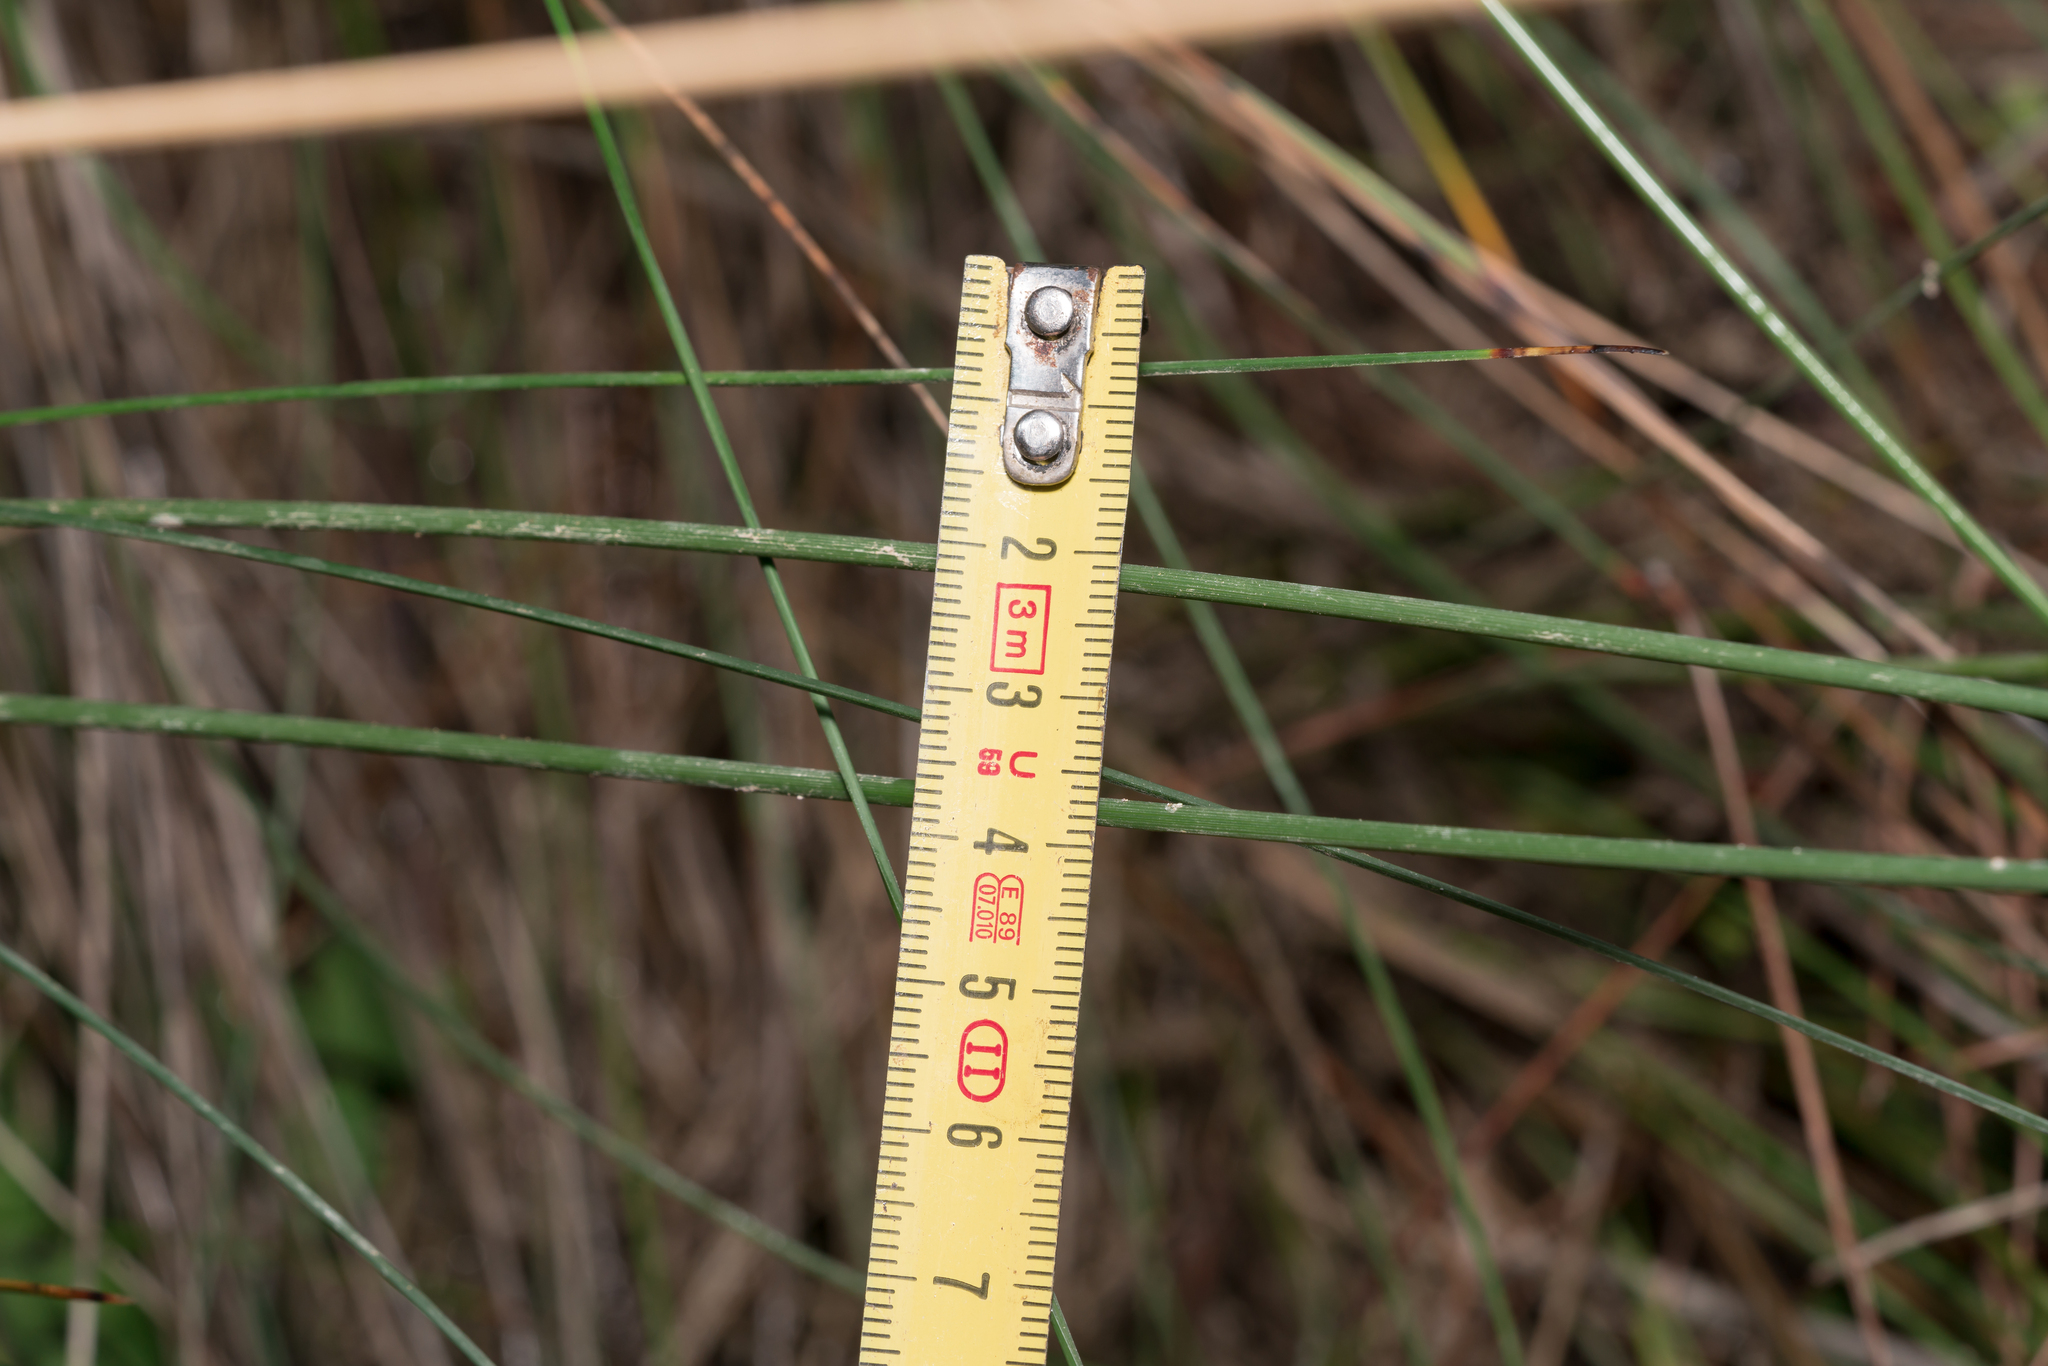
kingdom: Plantae
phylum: Tracheophyta
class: Liliopsida
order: Poales
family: Cyperaceae
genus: Schoenus
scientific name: Schoenus nigricans
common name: Black bog-rush
